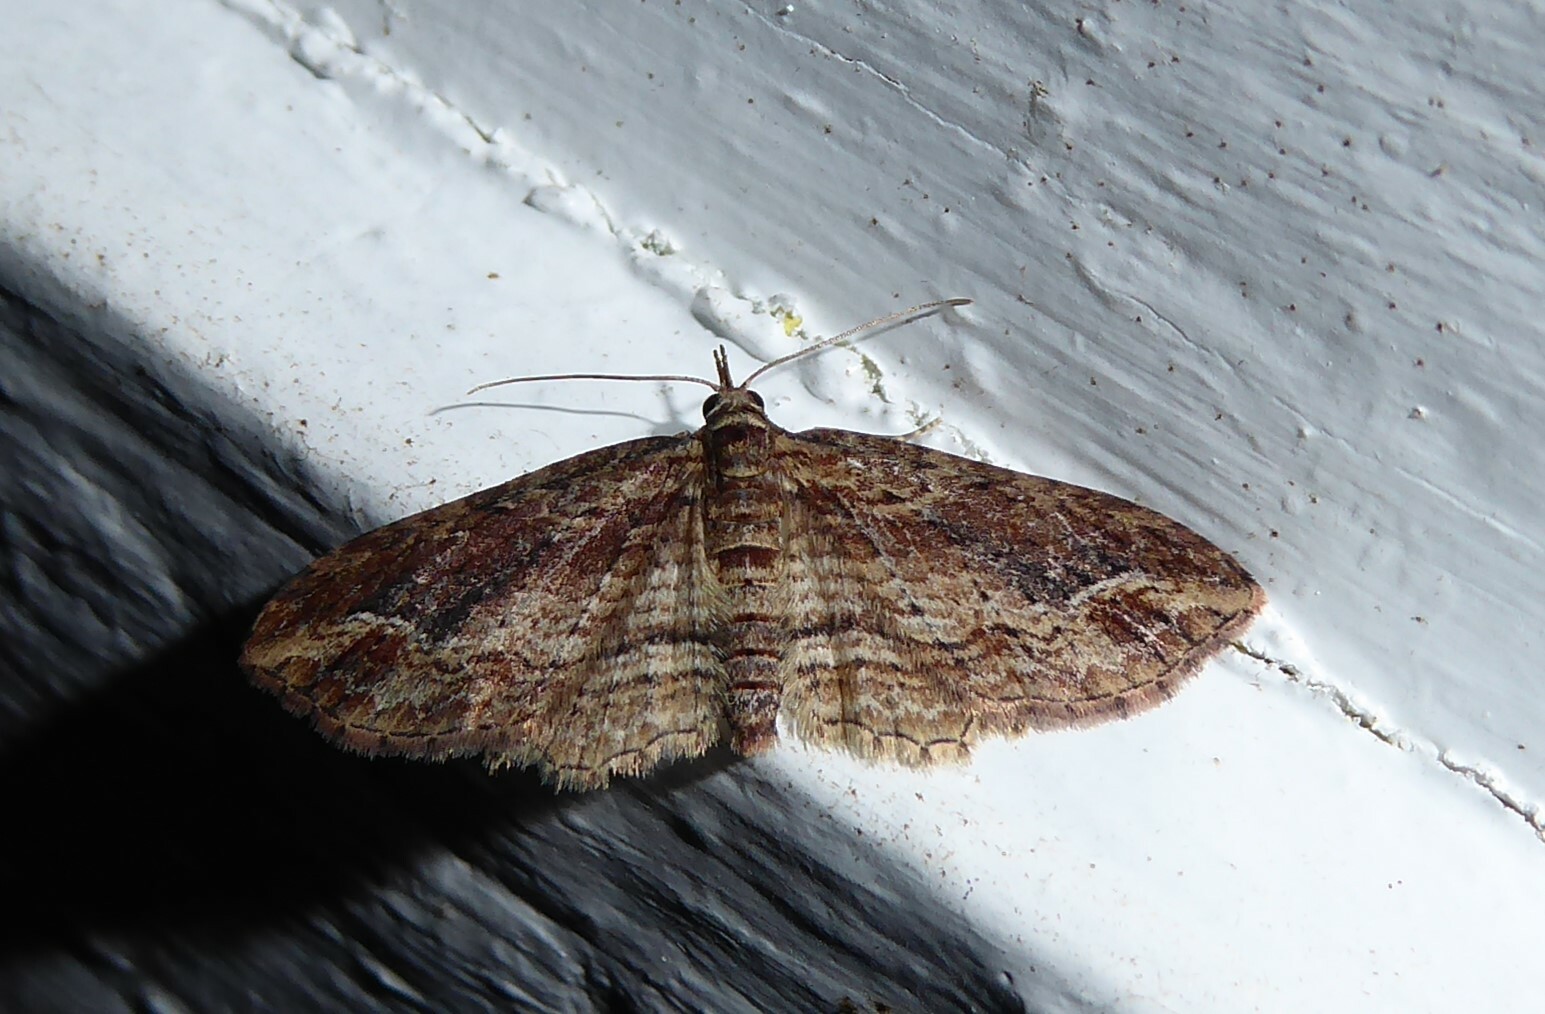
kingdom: Animalia
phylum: Arthropoda
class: Insecta
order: Lepidoptera
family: Geometridae
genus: Chloroclystis
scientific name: Chloroclystis filata
